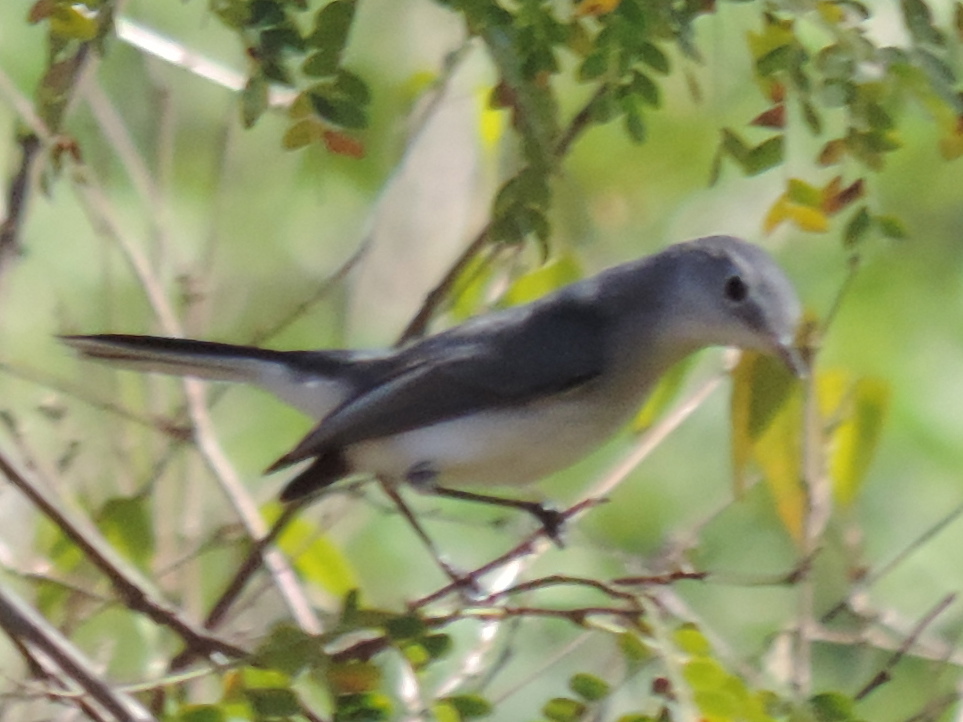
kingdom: Animalia
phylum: Chordata
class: Aves
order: Passeriformes
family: Polioptilidae
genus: Polioptila
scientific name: Polioptila caerulea
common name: Blue-gray gnatcatcher
